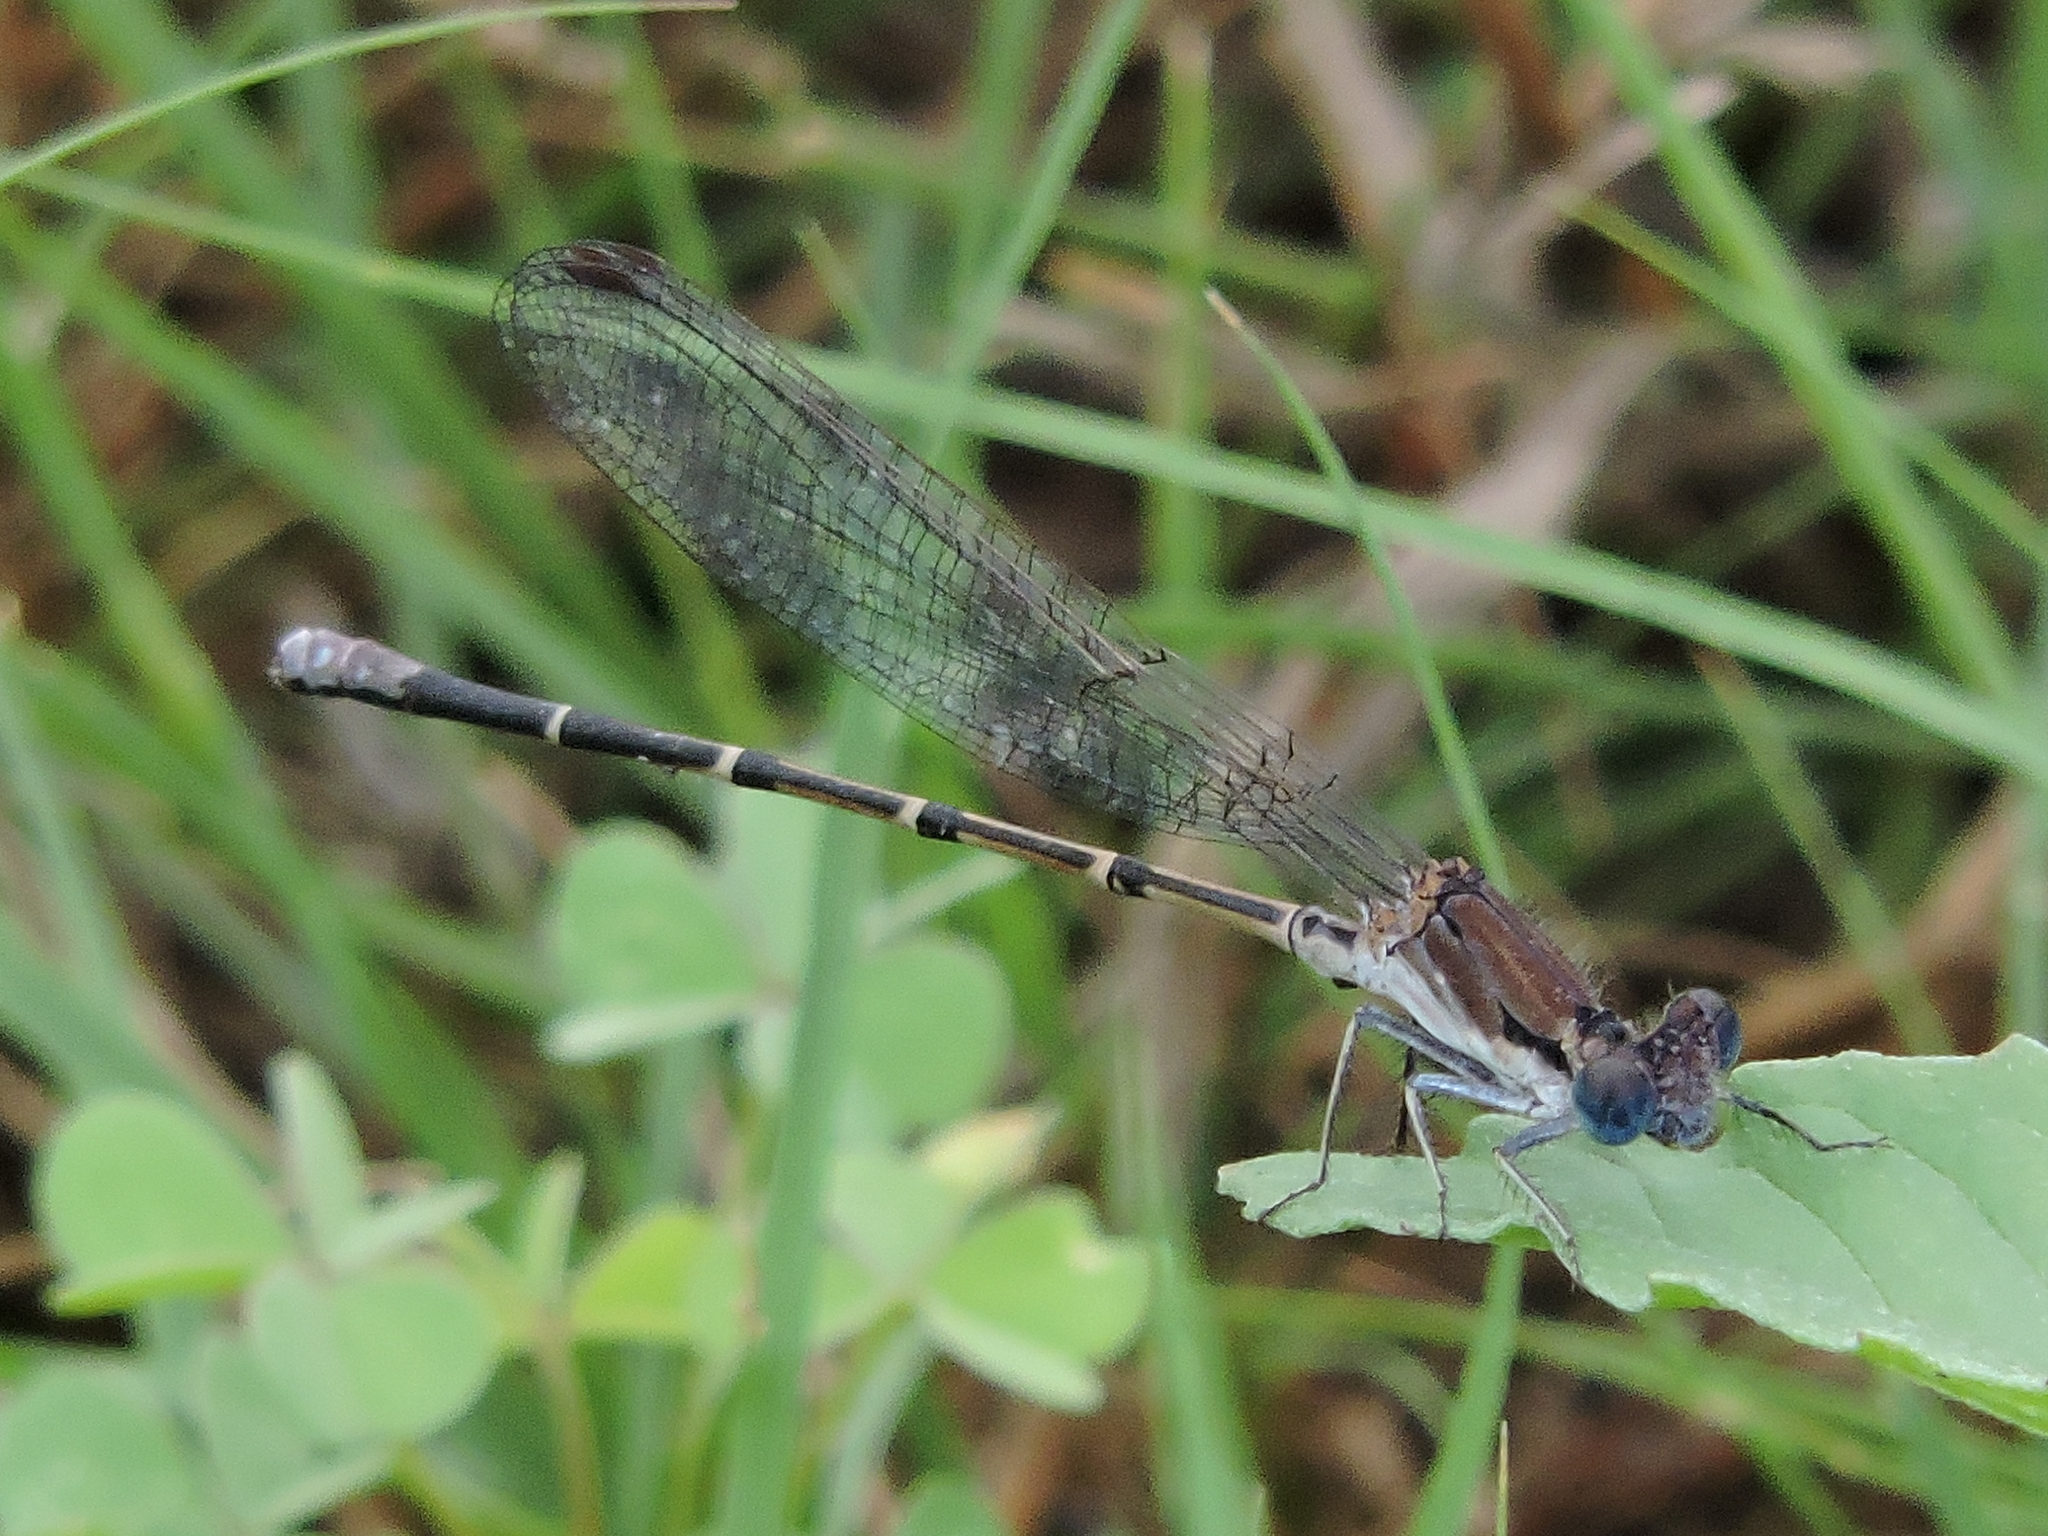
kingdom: Animalia
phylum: Arthropoda
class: Insecta
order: Odonata
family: Coenagrionidae
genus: Argia
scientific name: Argia apicalis
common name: Blue-fronted dancer
